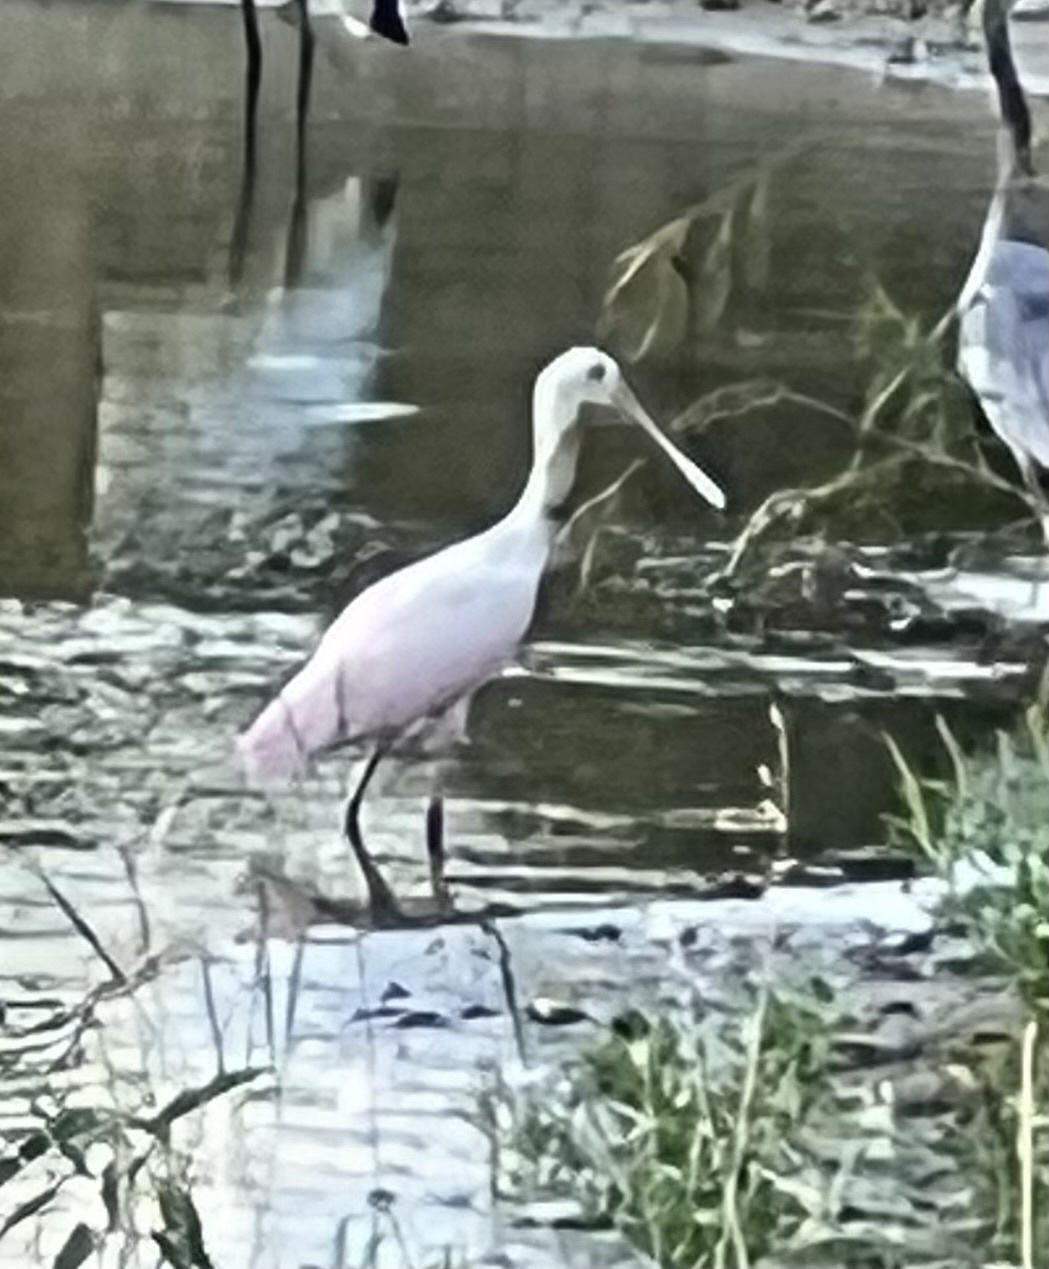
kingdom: Animalia
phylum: Chordata
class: Aves
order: Pelecaniformes
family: Threskiornithidae
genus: Platalea
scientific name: Platalea ajaja
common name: Roseate spoonbill
